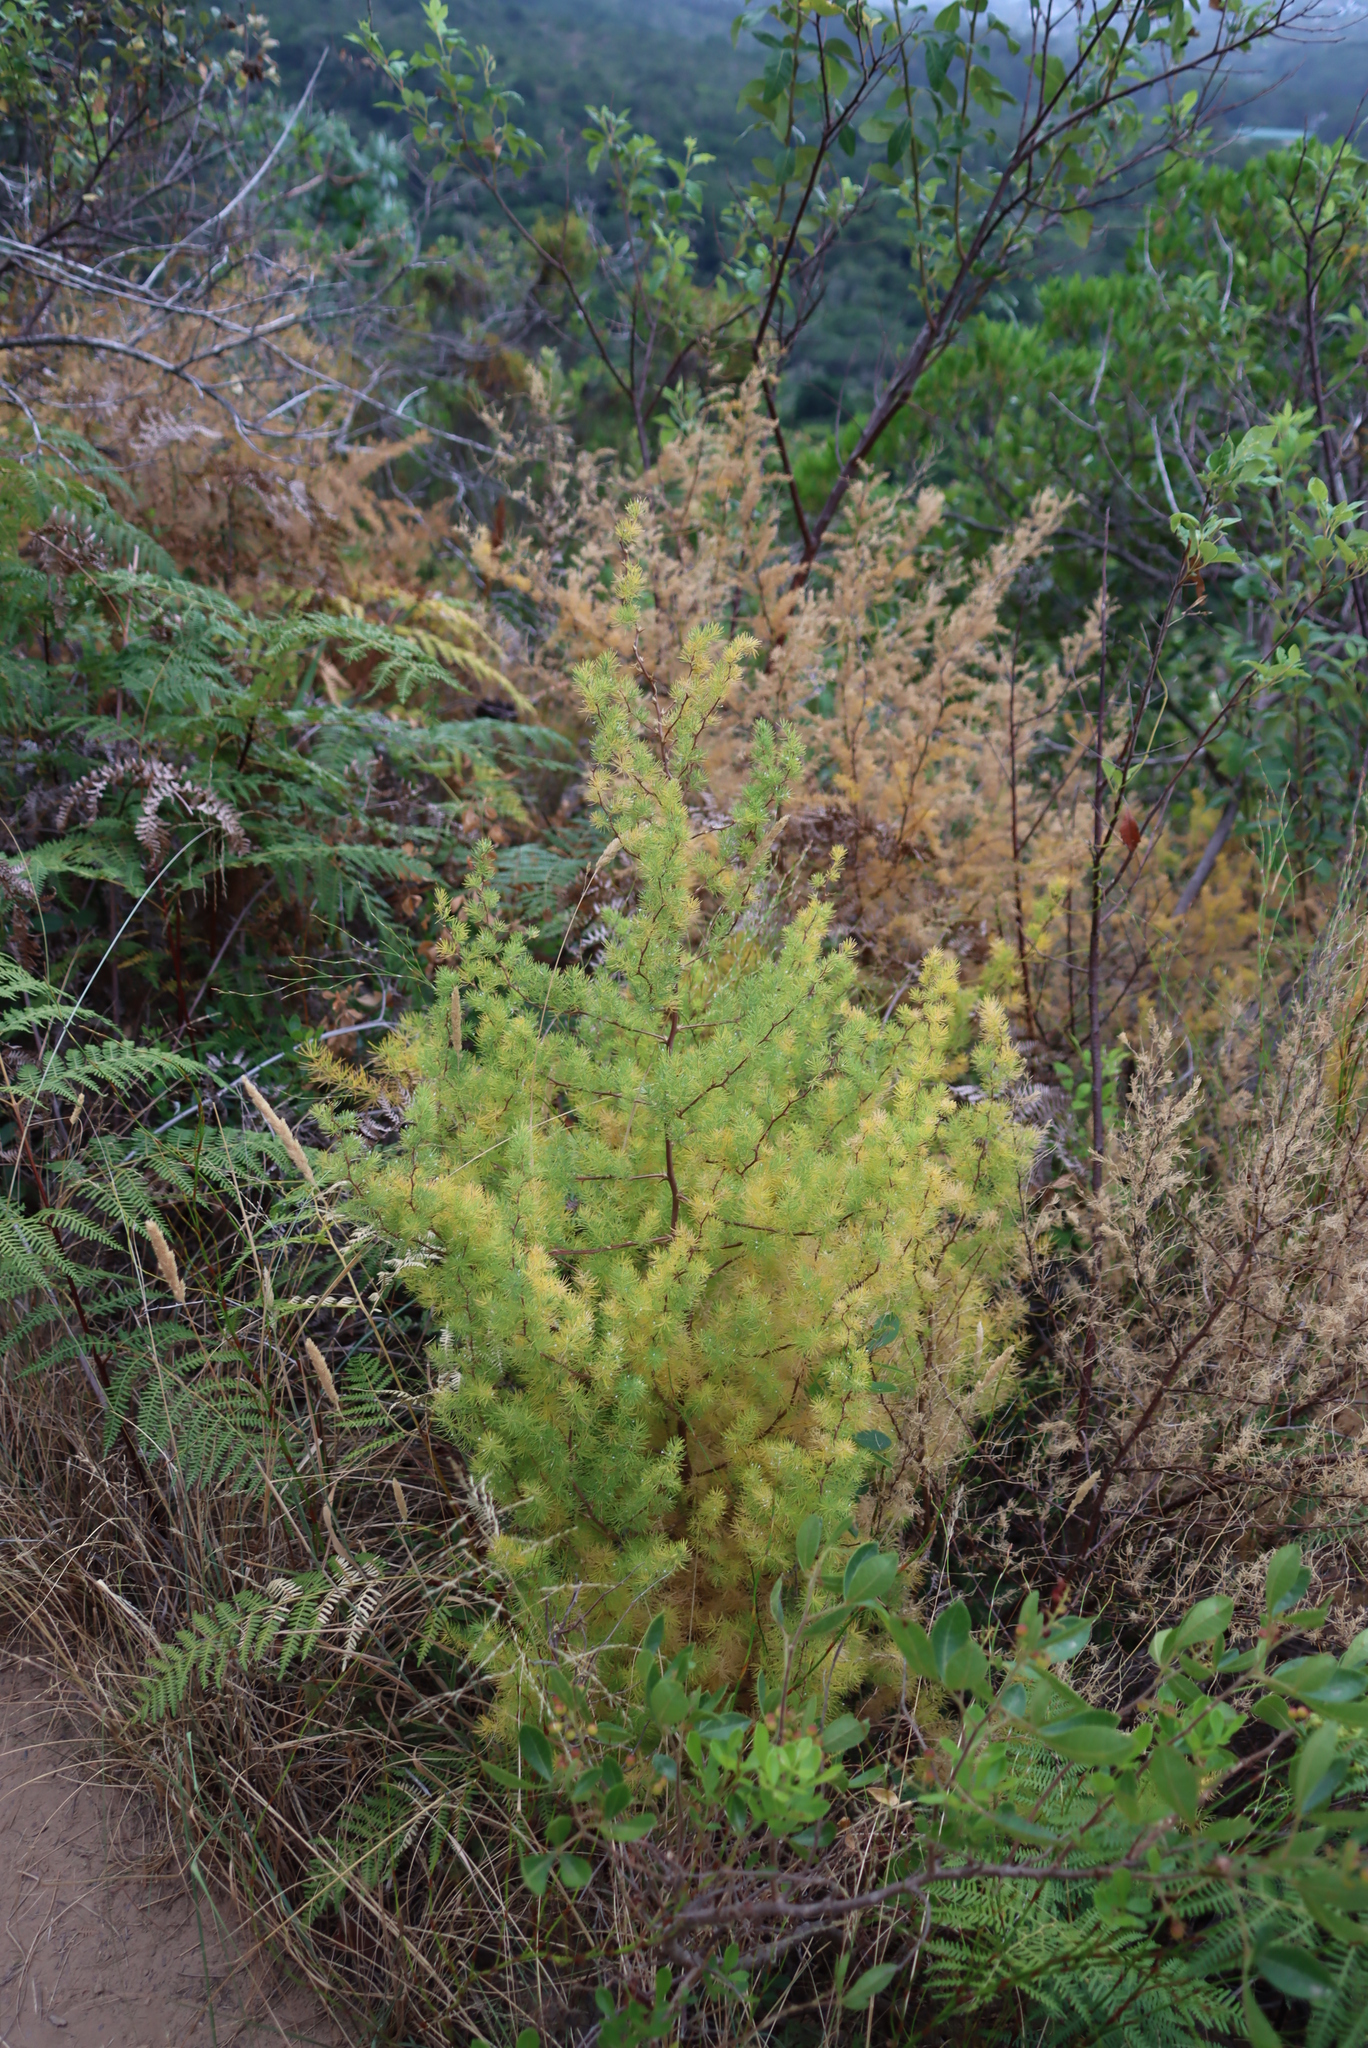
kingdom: Plantae
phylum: Tracheophyta
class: Liliopsida
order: Asparagales
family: Asparagaceae
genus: Asparagus
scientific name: Asparagus rubicundus
